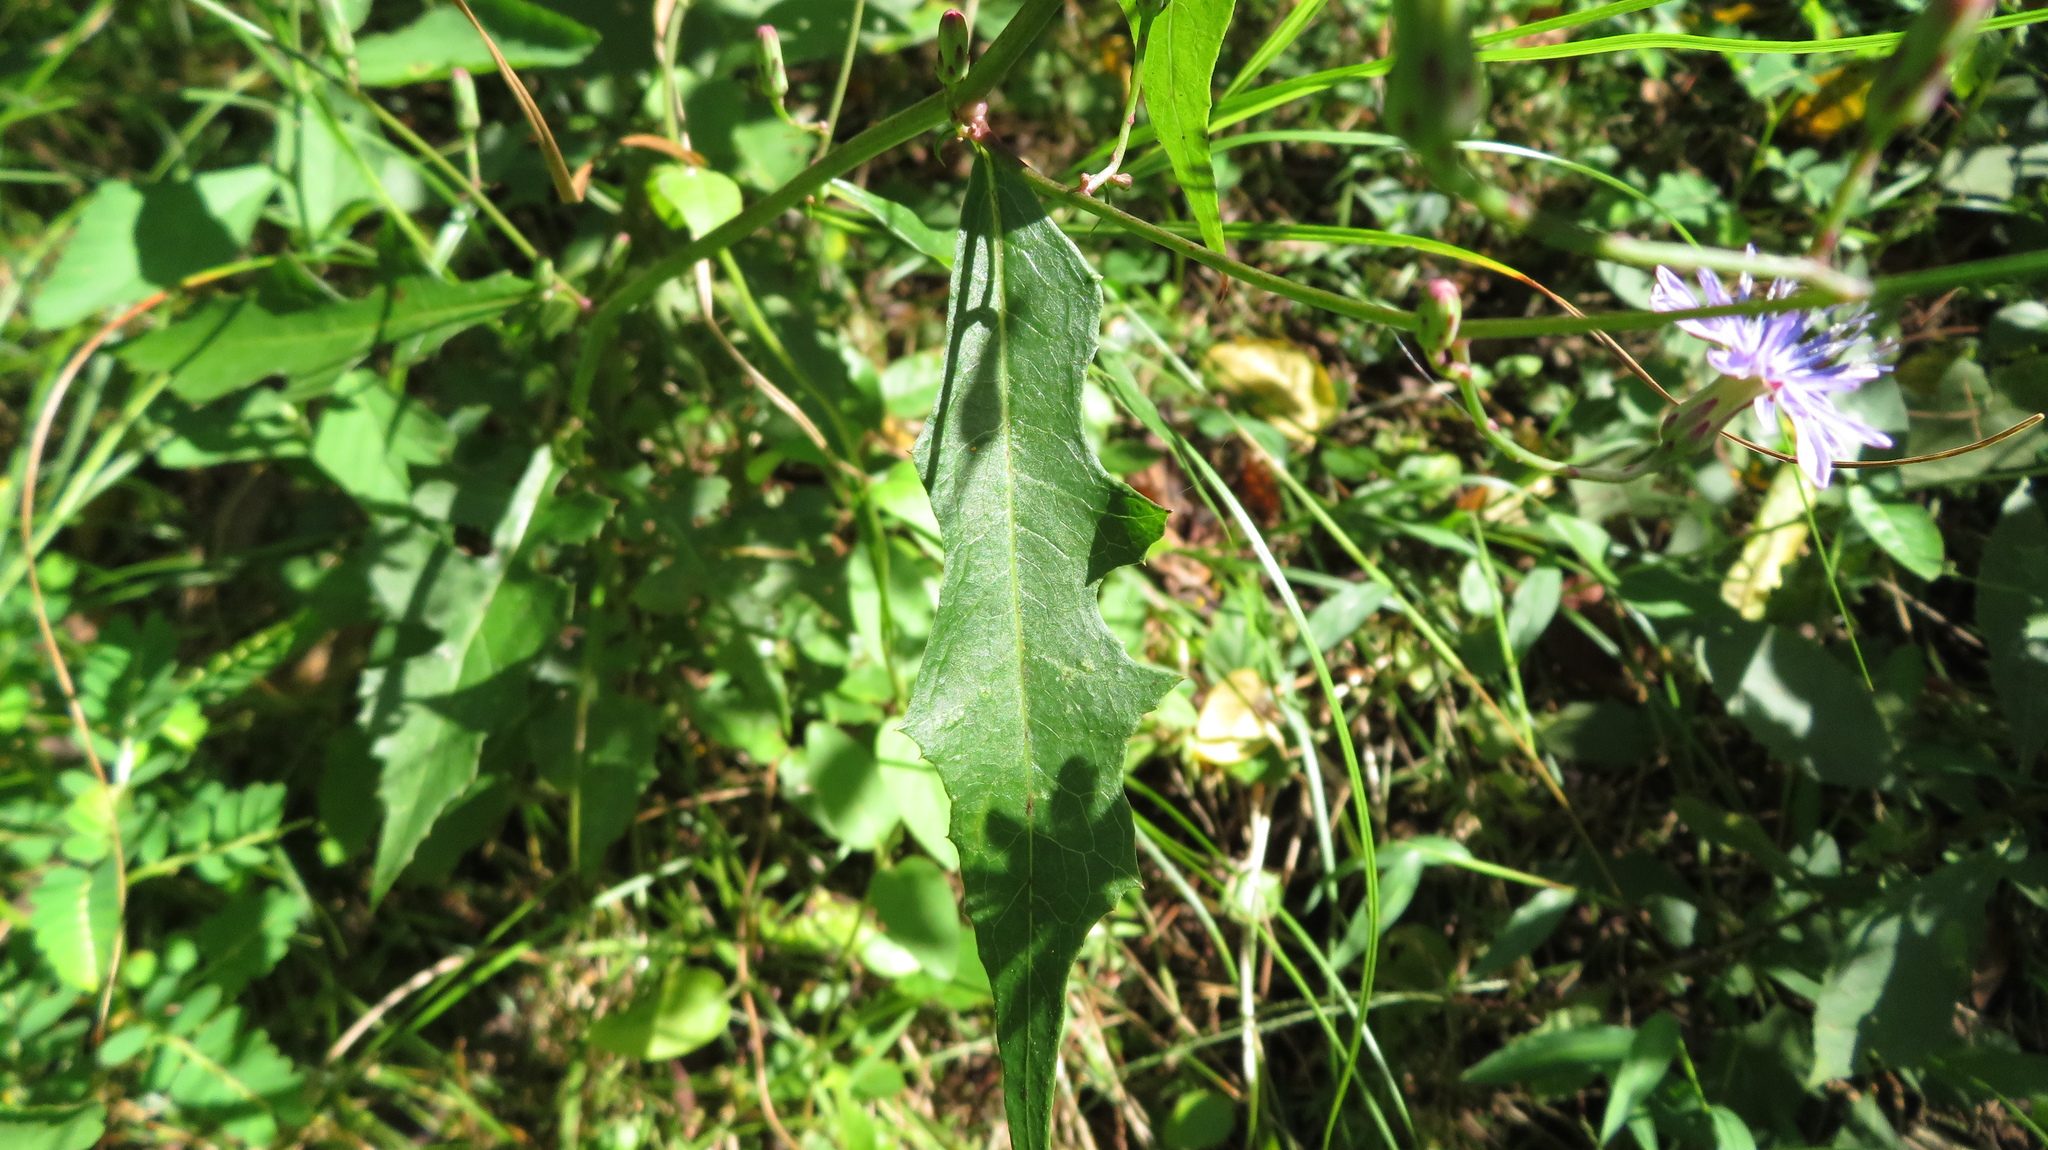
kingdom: Plantae
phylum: Tracheophyta
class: Magnoliopsida
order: Asterales
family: Asteraceae
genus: Lactuca
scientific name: Lactuca floridana
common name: Woodland lettuce
